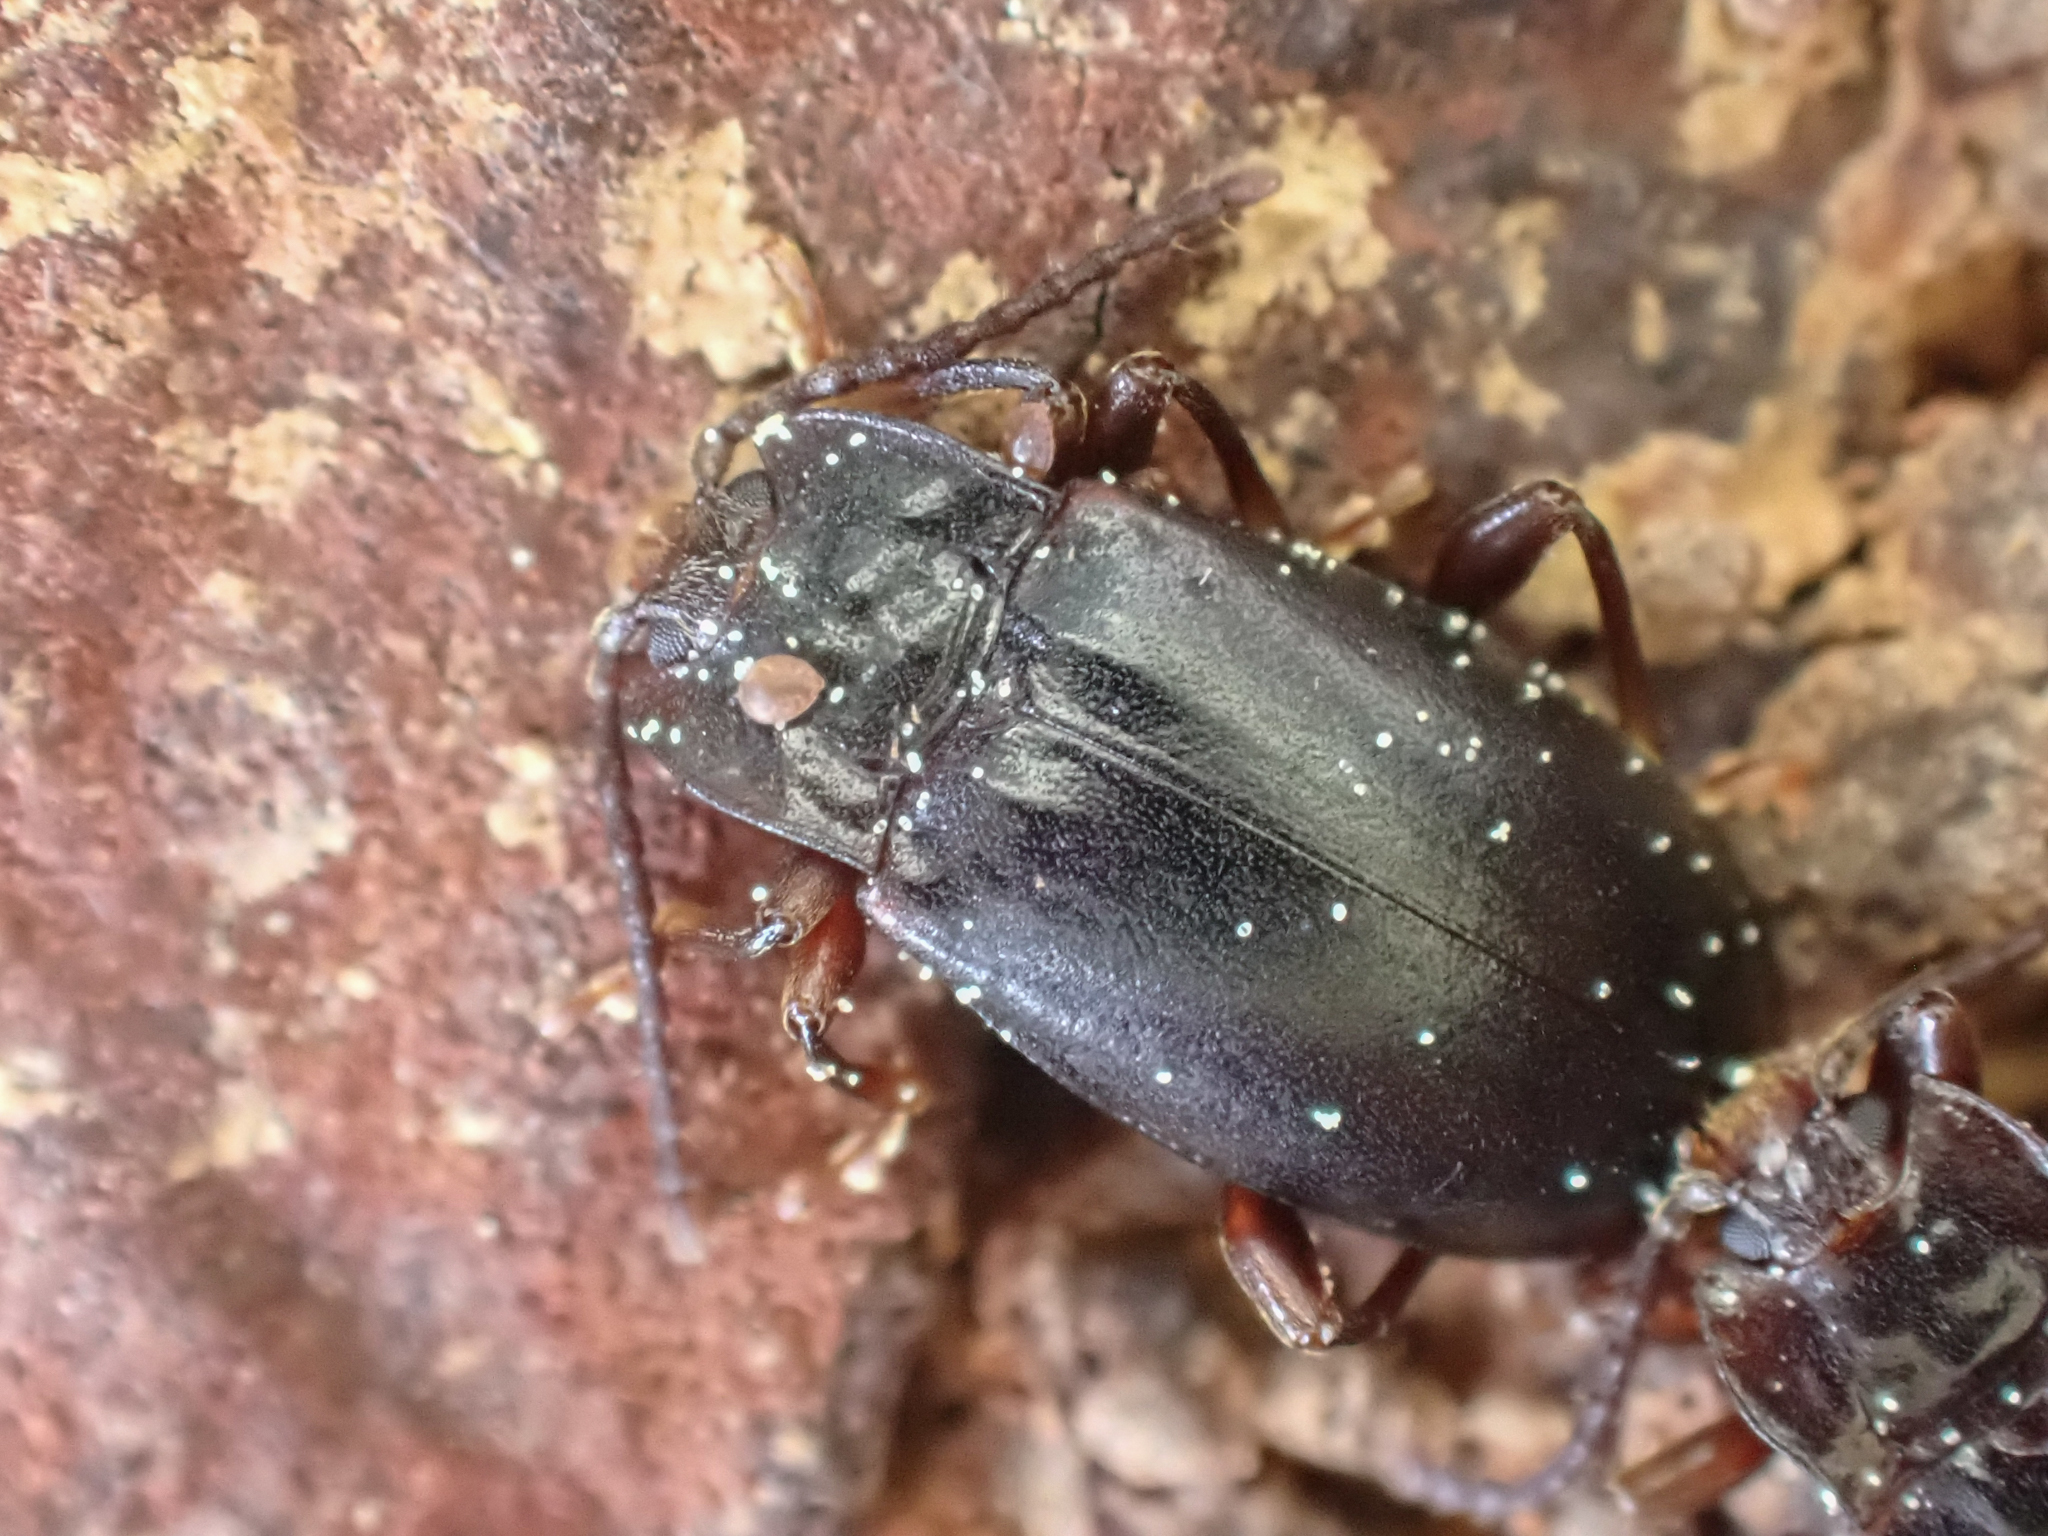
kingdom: Animalia
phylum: Arthropoda
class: Insecta
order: Coleoptera
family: Endomychidae
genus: Aphorista
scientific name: Aphorista morosa
